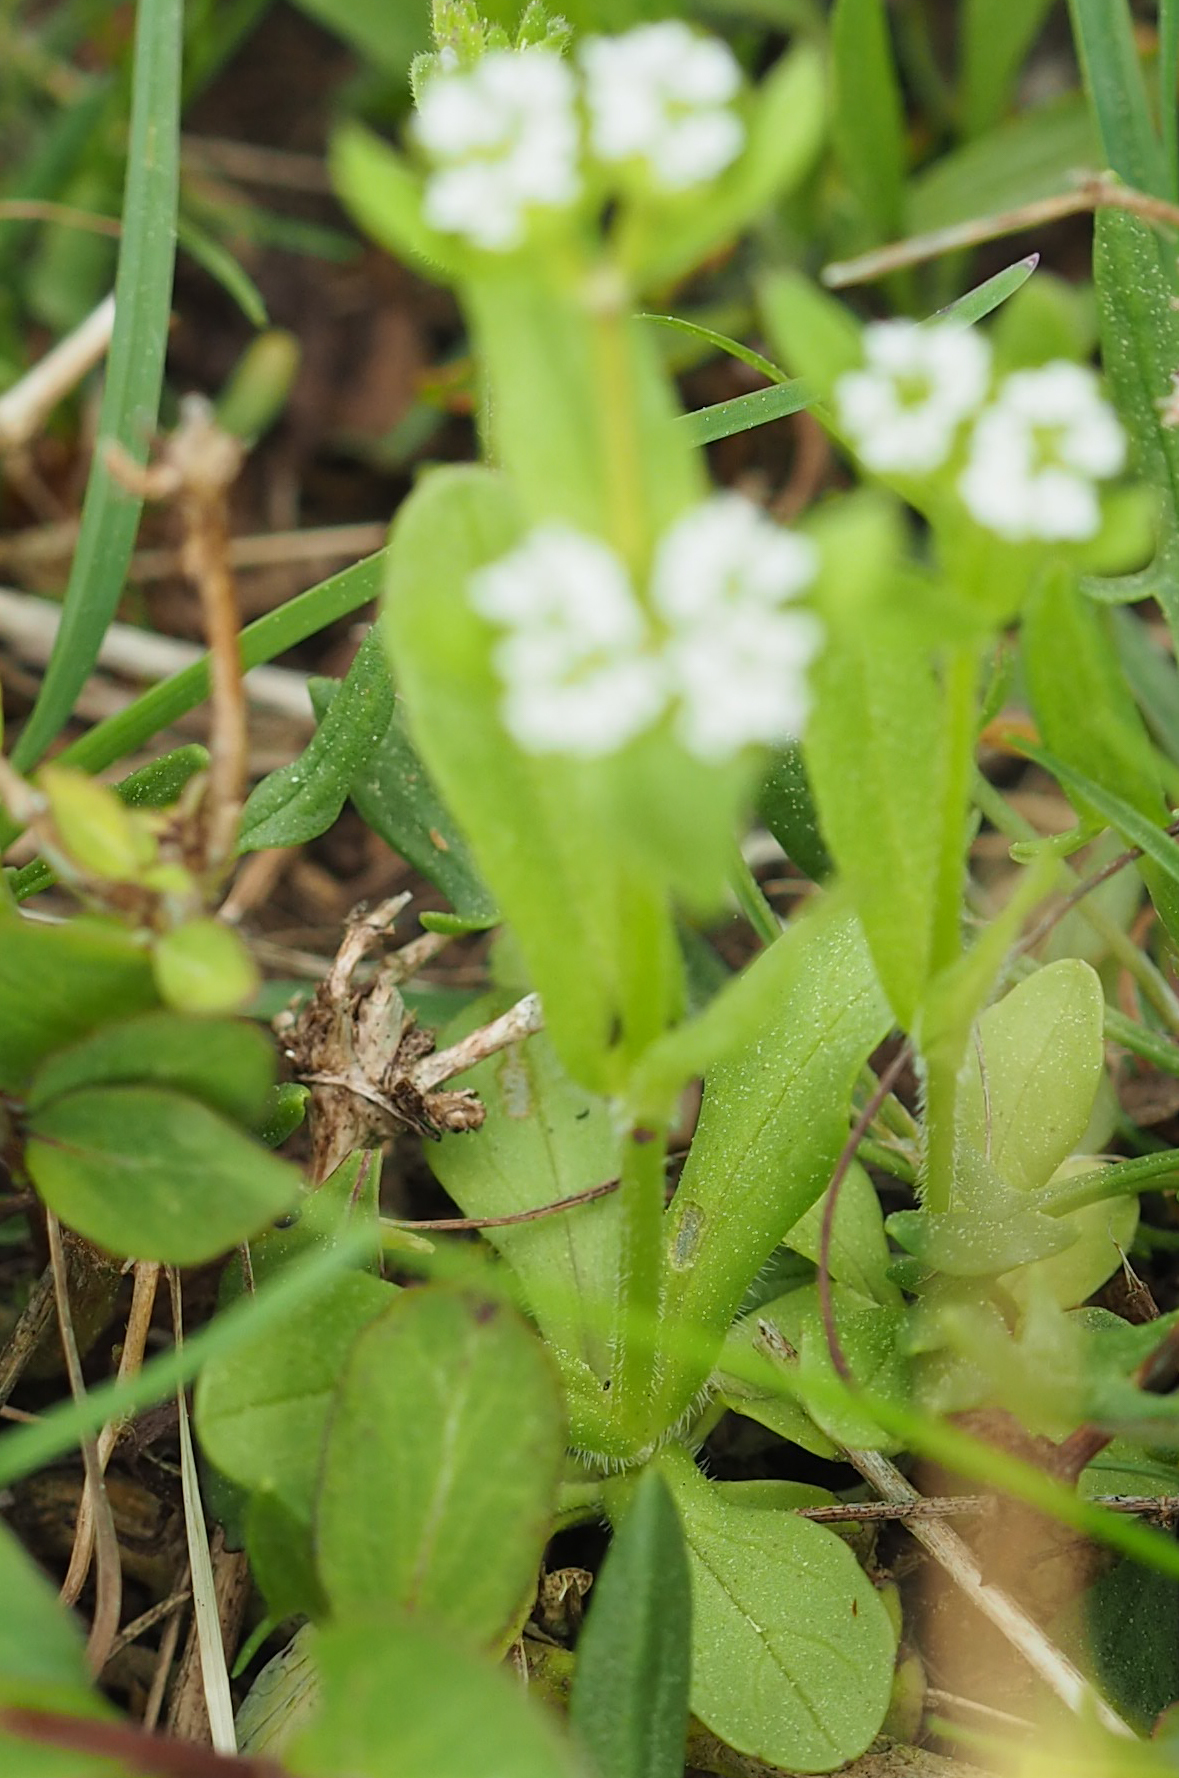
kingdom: Plantae
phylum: Tracheophyta
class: Magnoliopsida
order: Dipsacales
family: Caprifoliaceae
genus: Valerianella
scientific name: Valerianella locusta
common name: Common cornsalad
